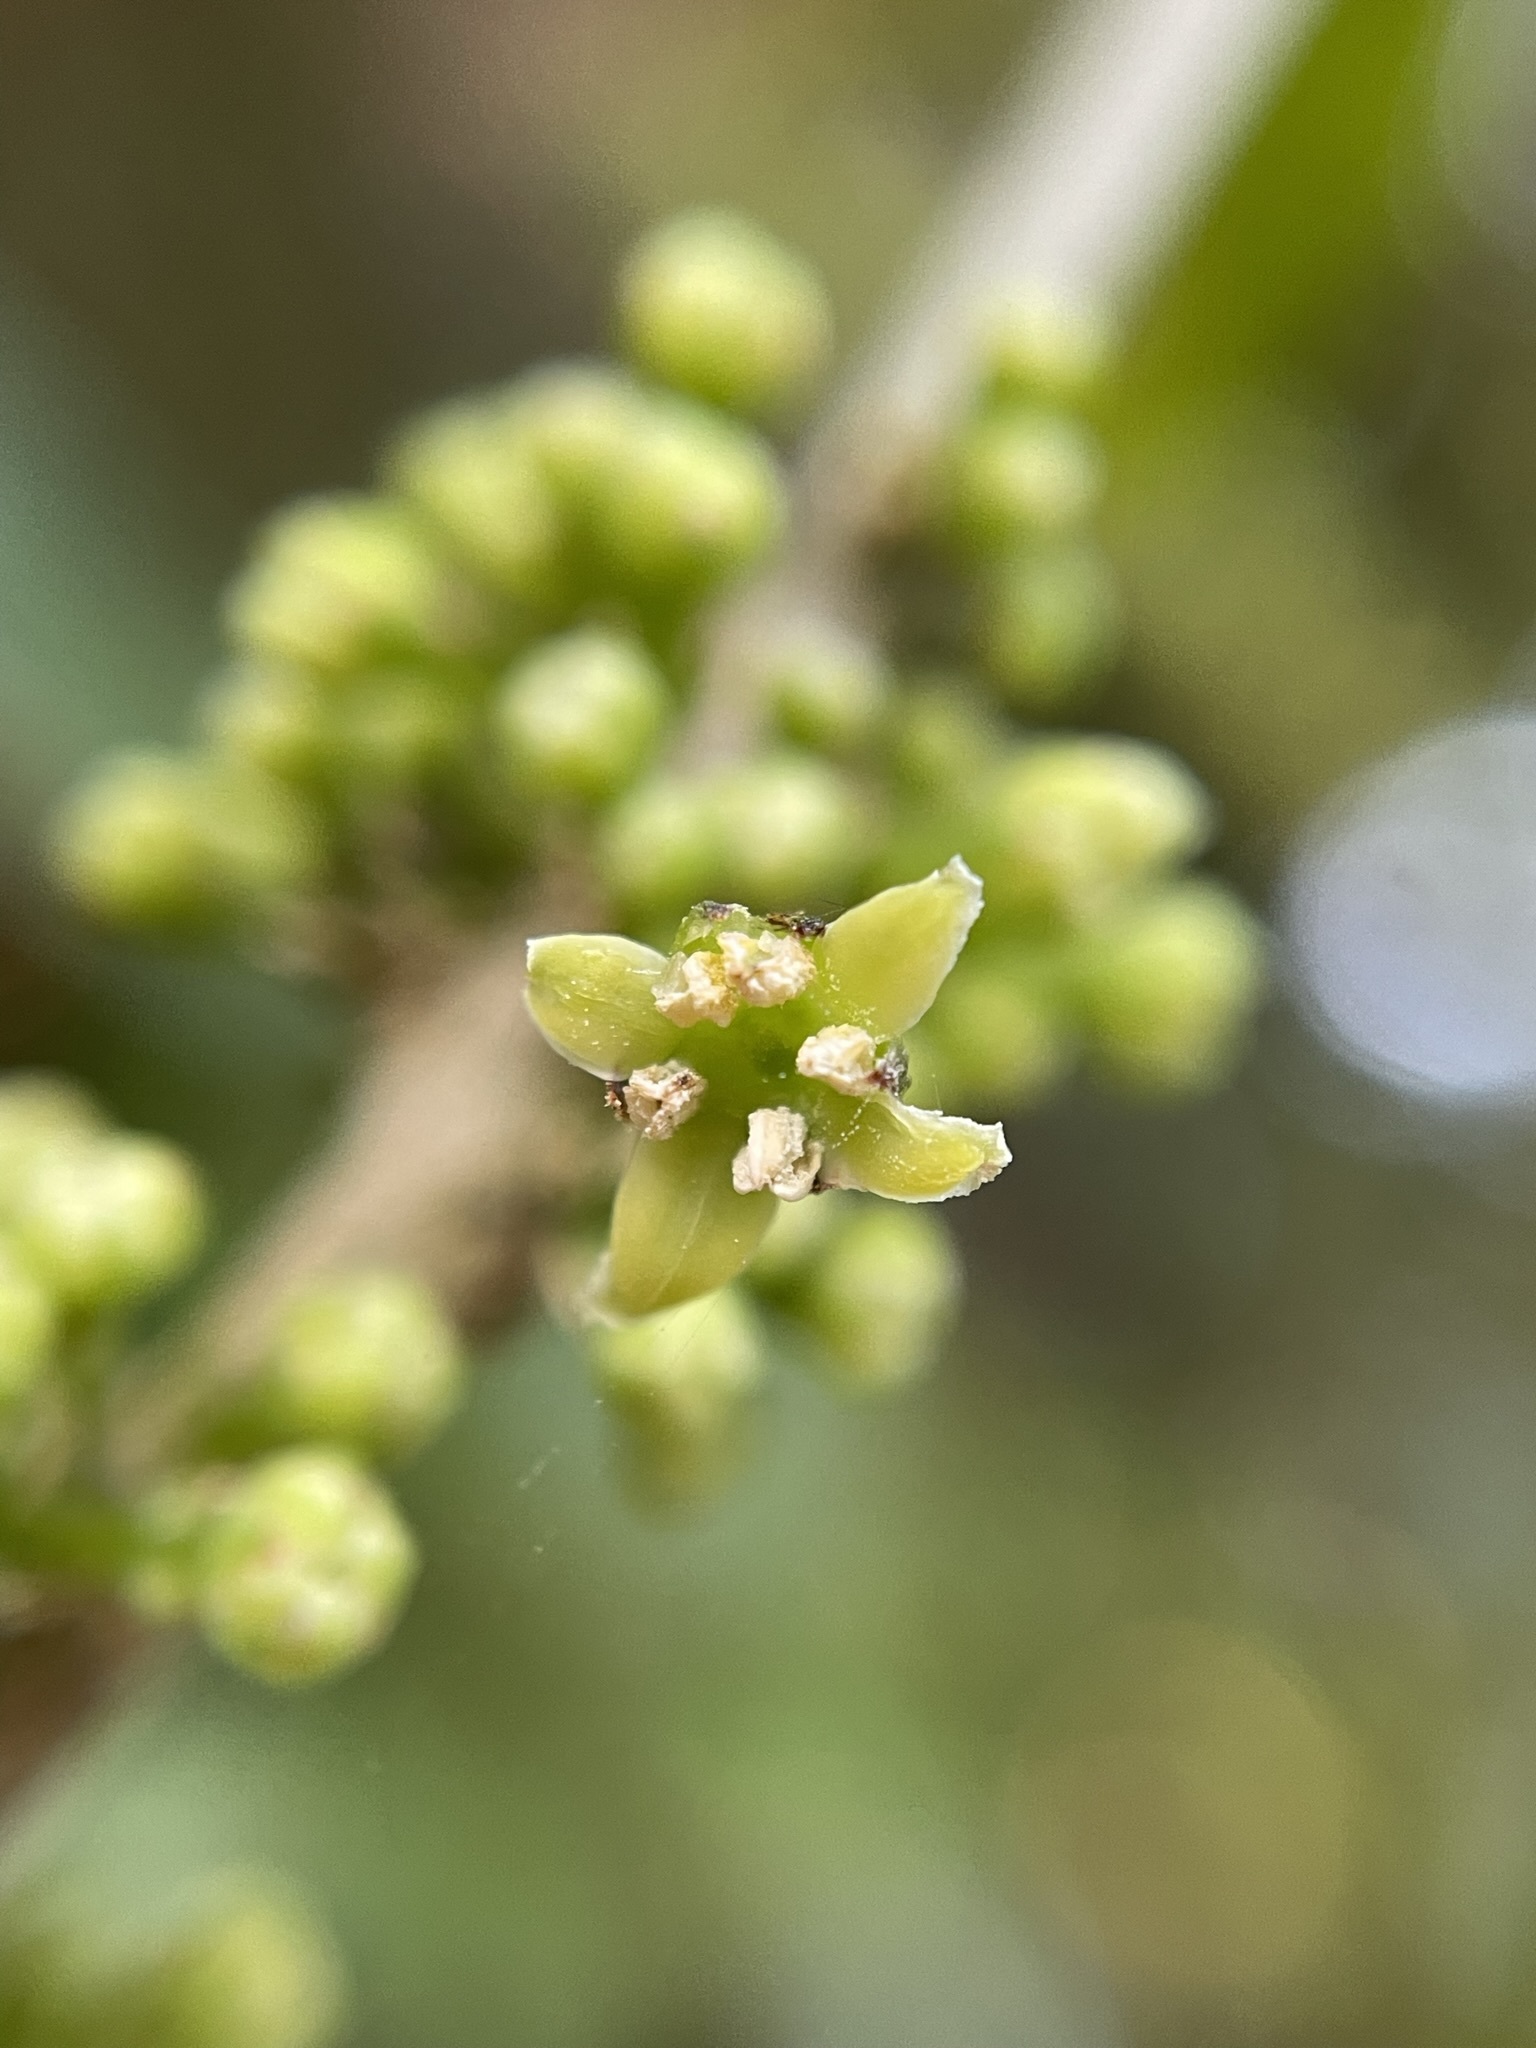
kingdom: Plantae
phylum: Tracheophyta
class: Magnoliopsida
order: Malpighiales
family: Violaceae
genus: Melicytus
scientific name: Melicytus ramiflorus
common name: Mahoe
